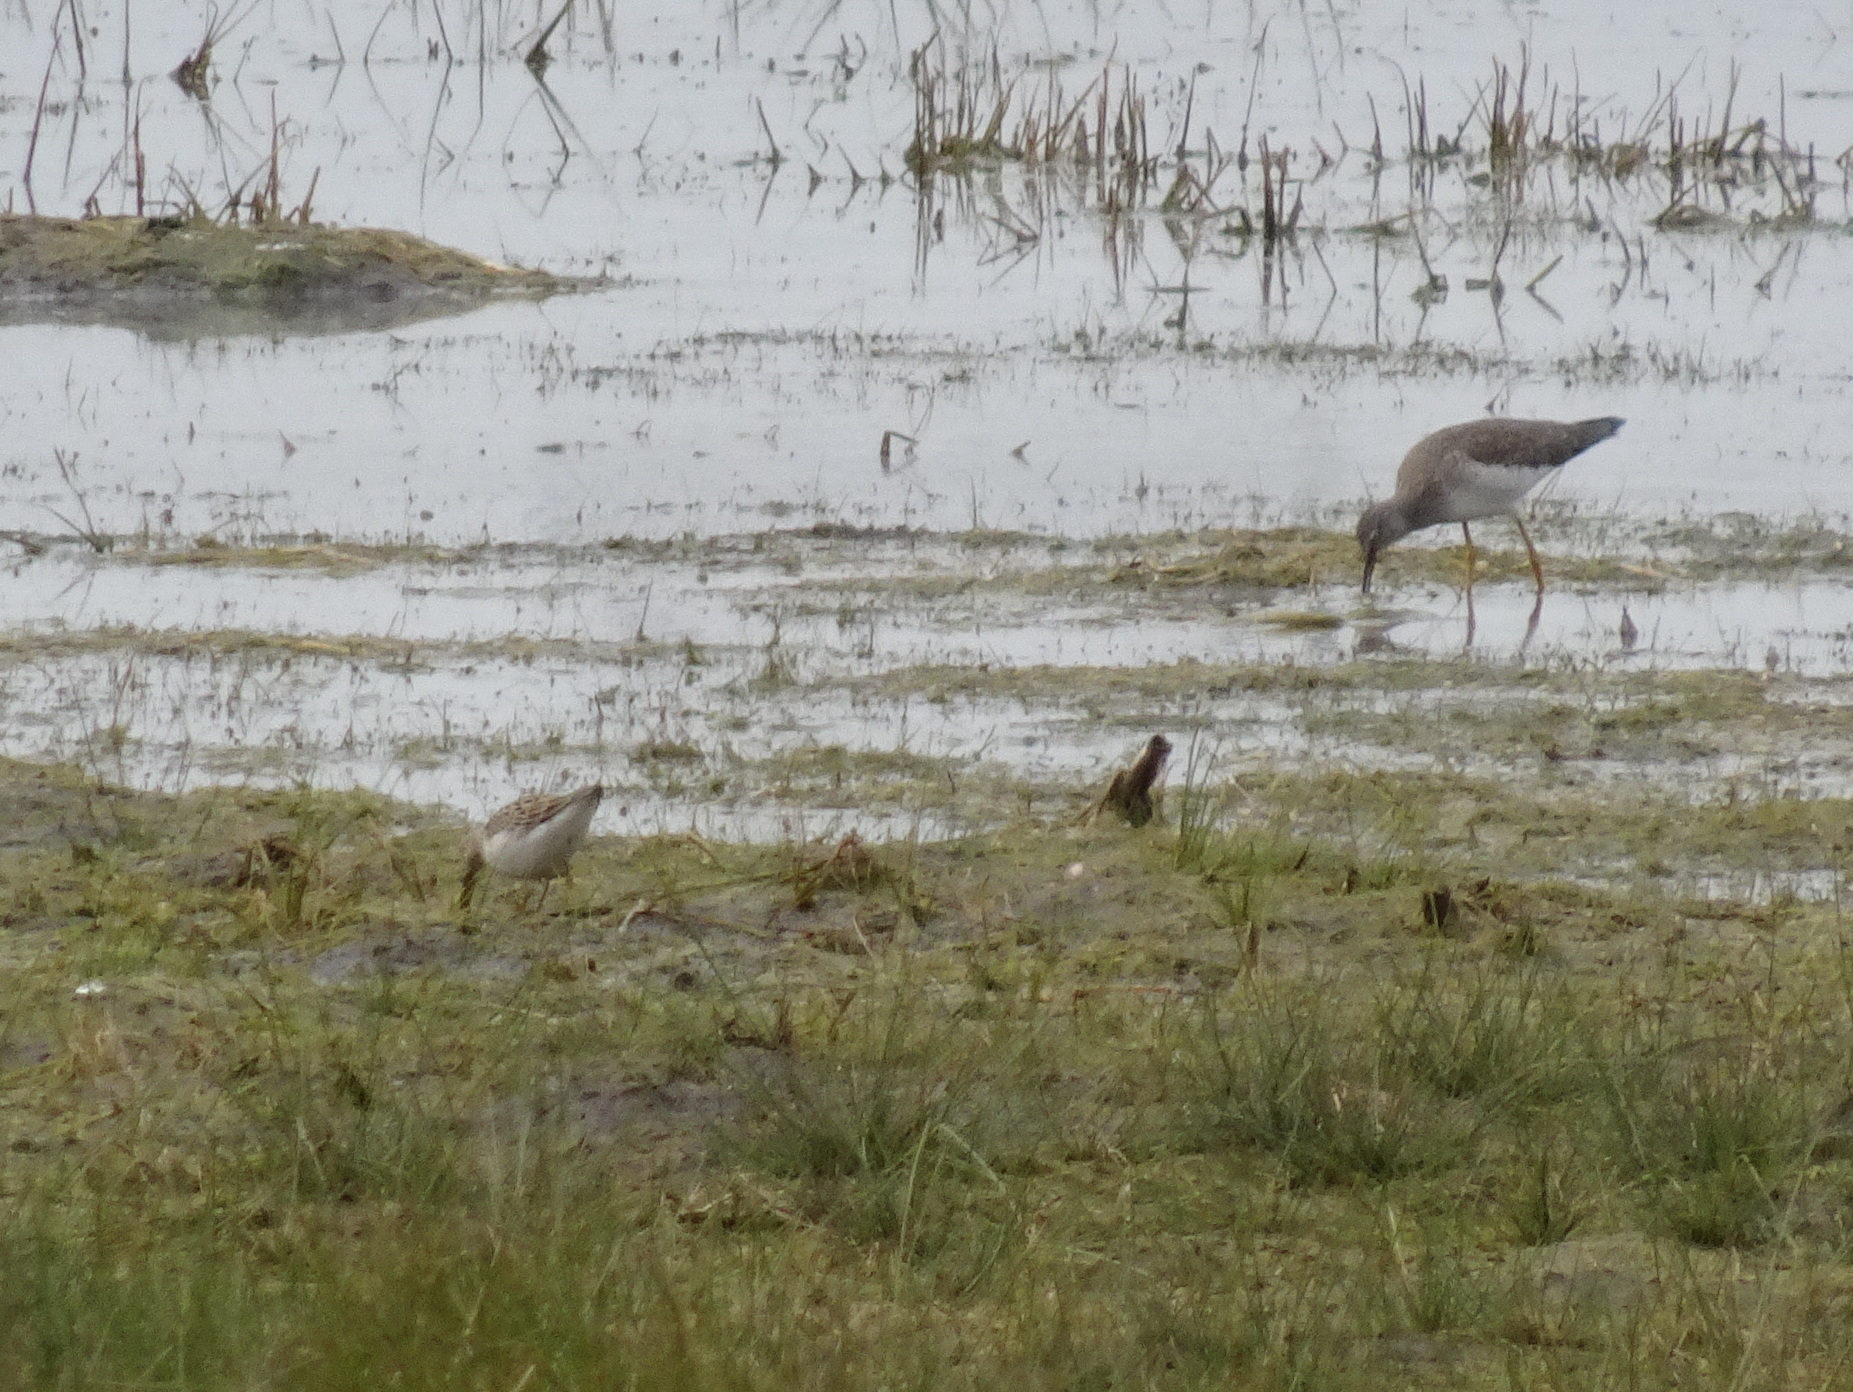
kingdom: Animalia
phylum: Chordata
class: Aves
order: Charadriiformes
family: Scolopacidae
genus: Calidris
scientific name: Calidris melanotos
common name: Pectoral sandpiper
